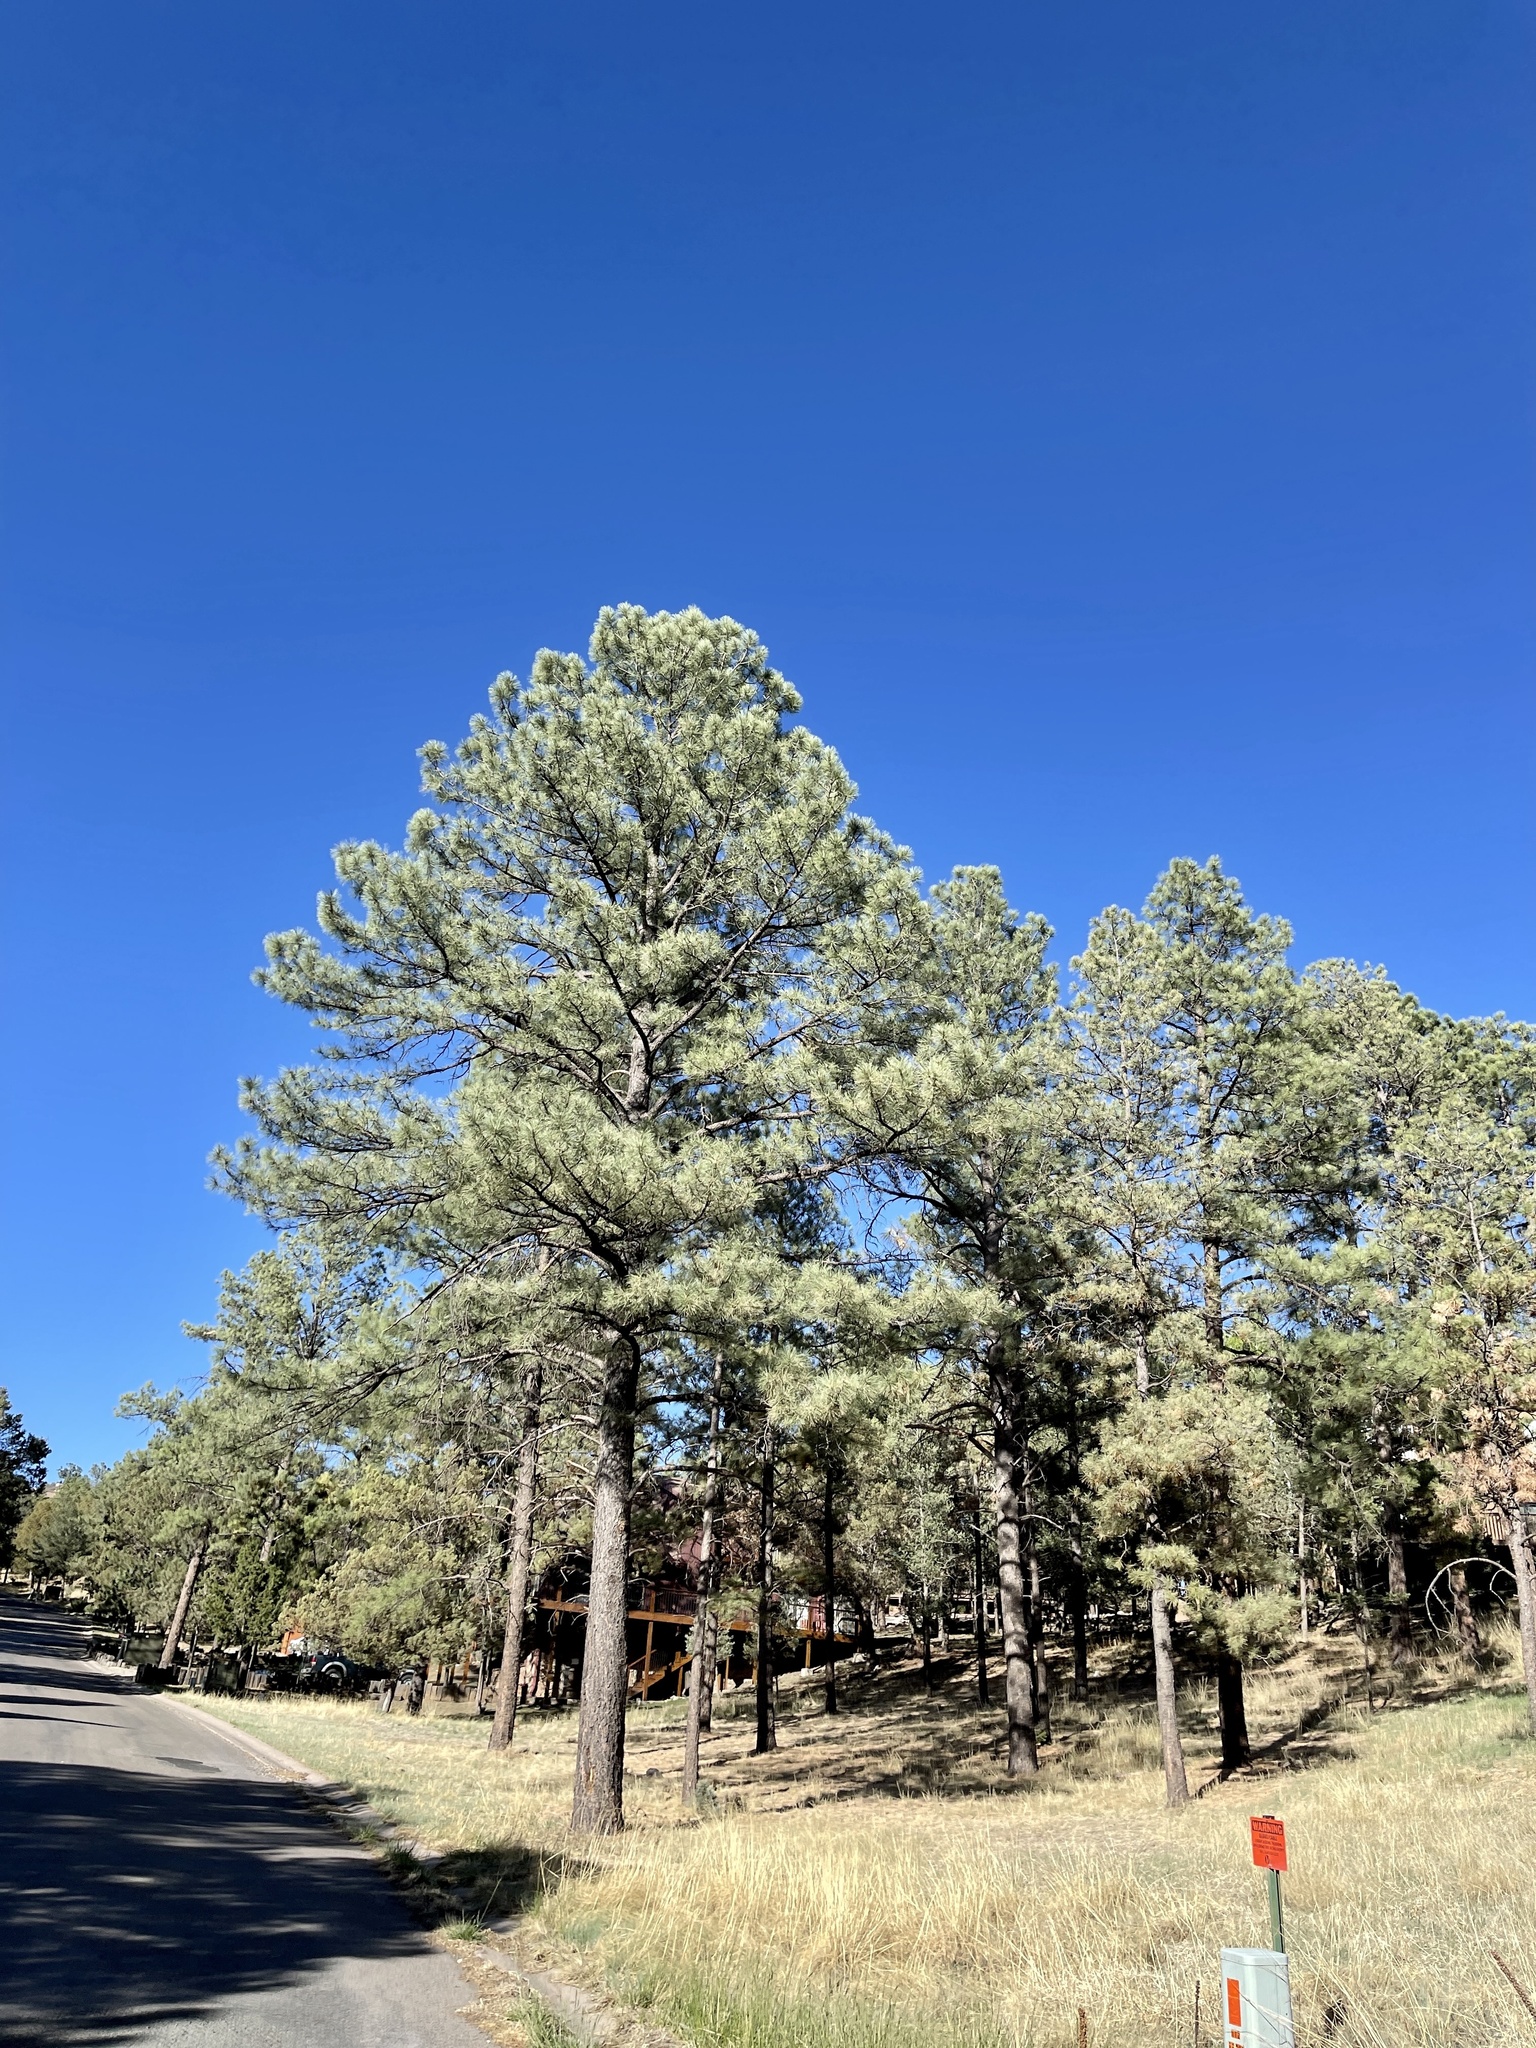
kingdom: Plantae
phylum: Tracheophyta
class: Pinopsida
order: Pinales
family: Pinaceae
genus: Pinus
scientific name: Pinus ponderosa
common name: Western yellow-pine
